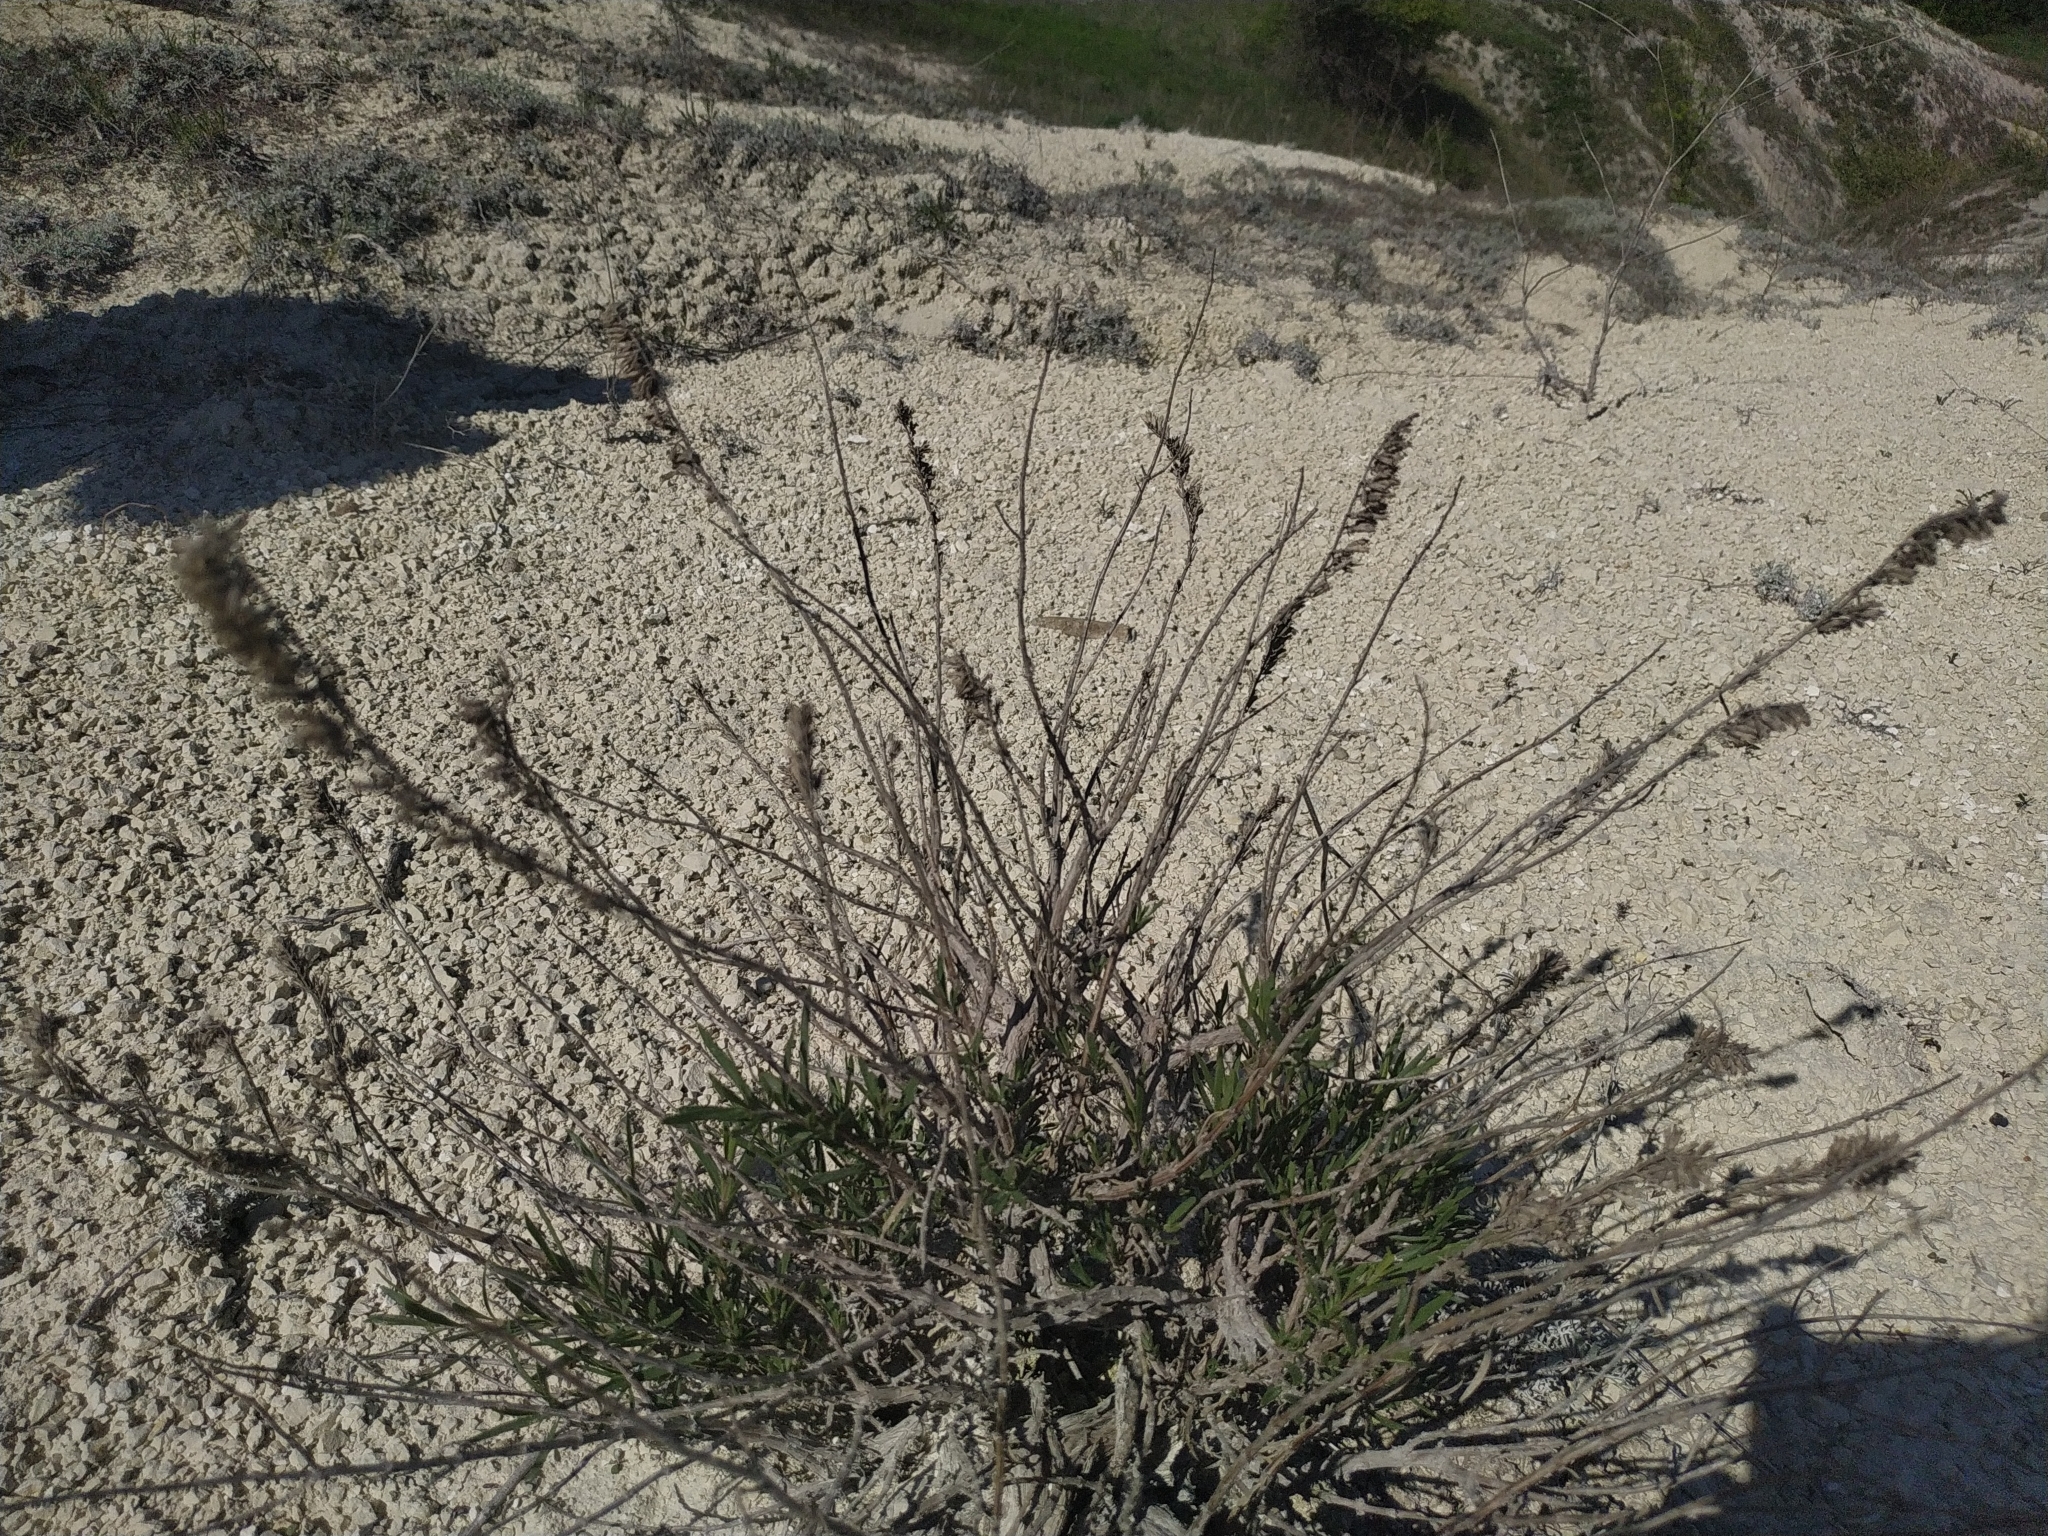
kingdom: Plantae
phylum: Tracheophyta
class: Magnoliopsida
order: Lamiales
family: Lamiaceae
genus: Hyssopus
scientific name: Hyssopus officinalis
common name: Hyssop
